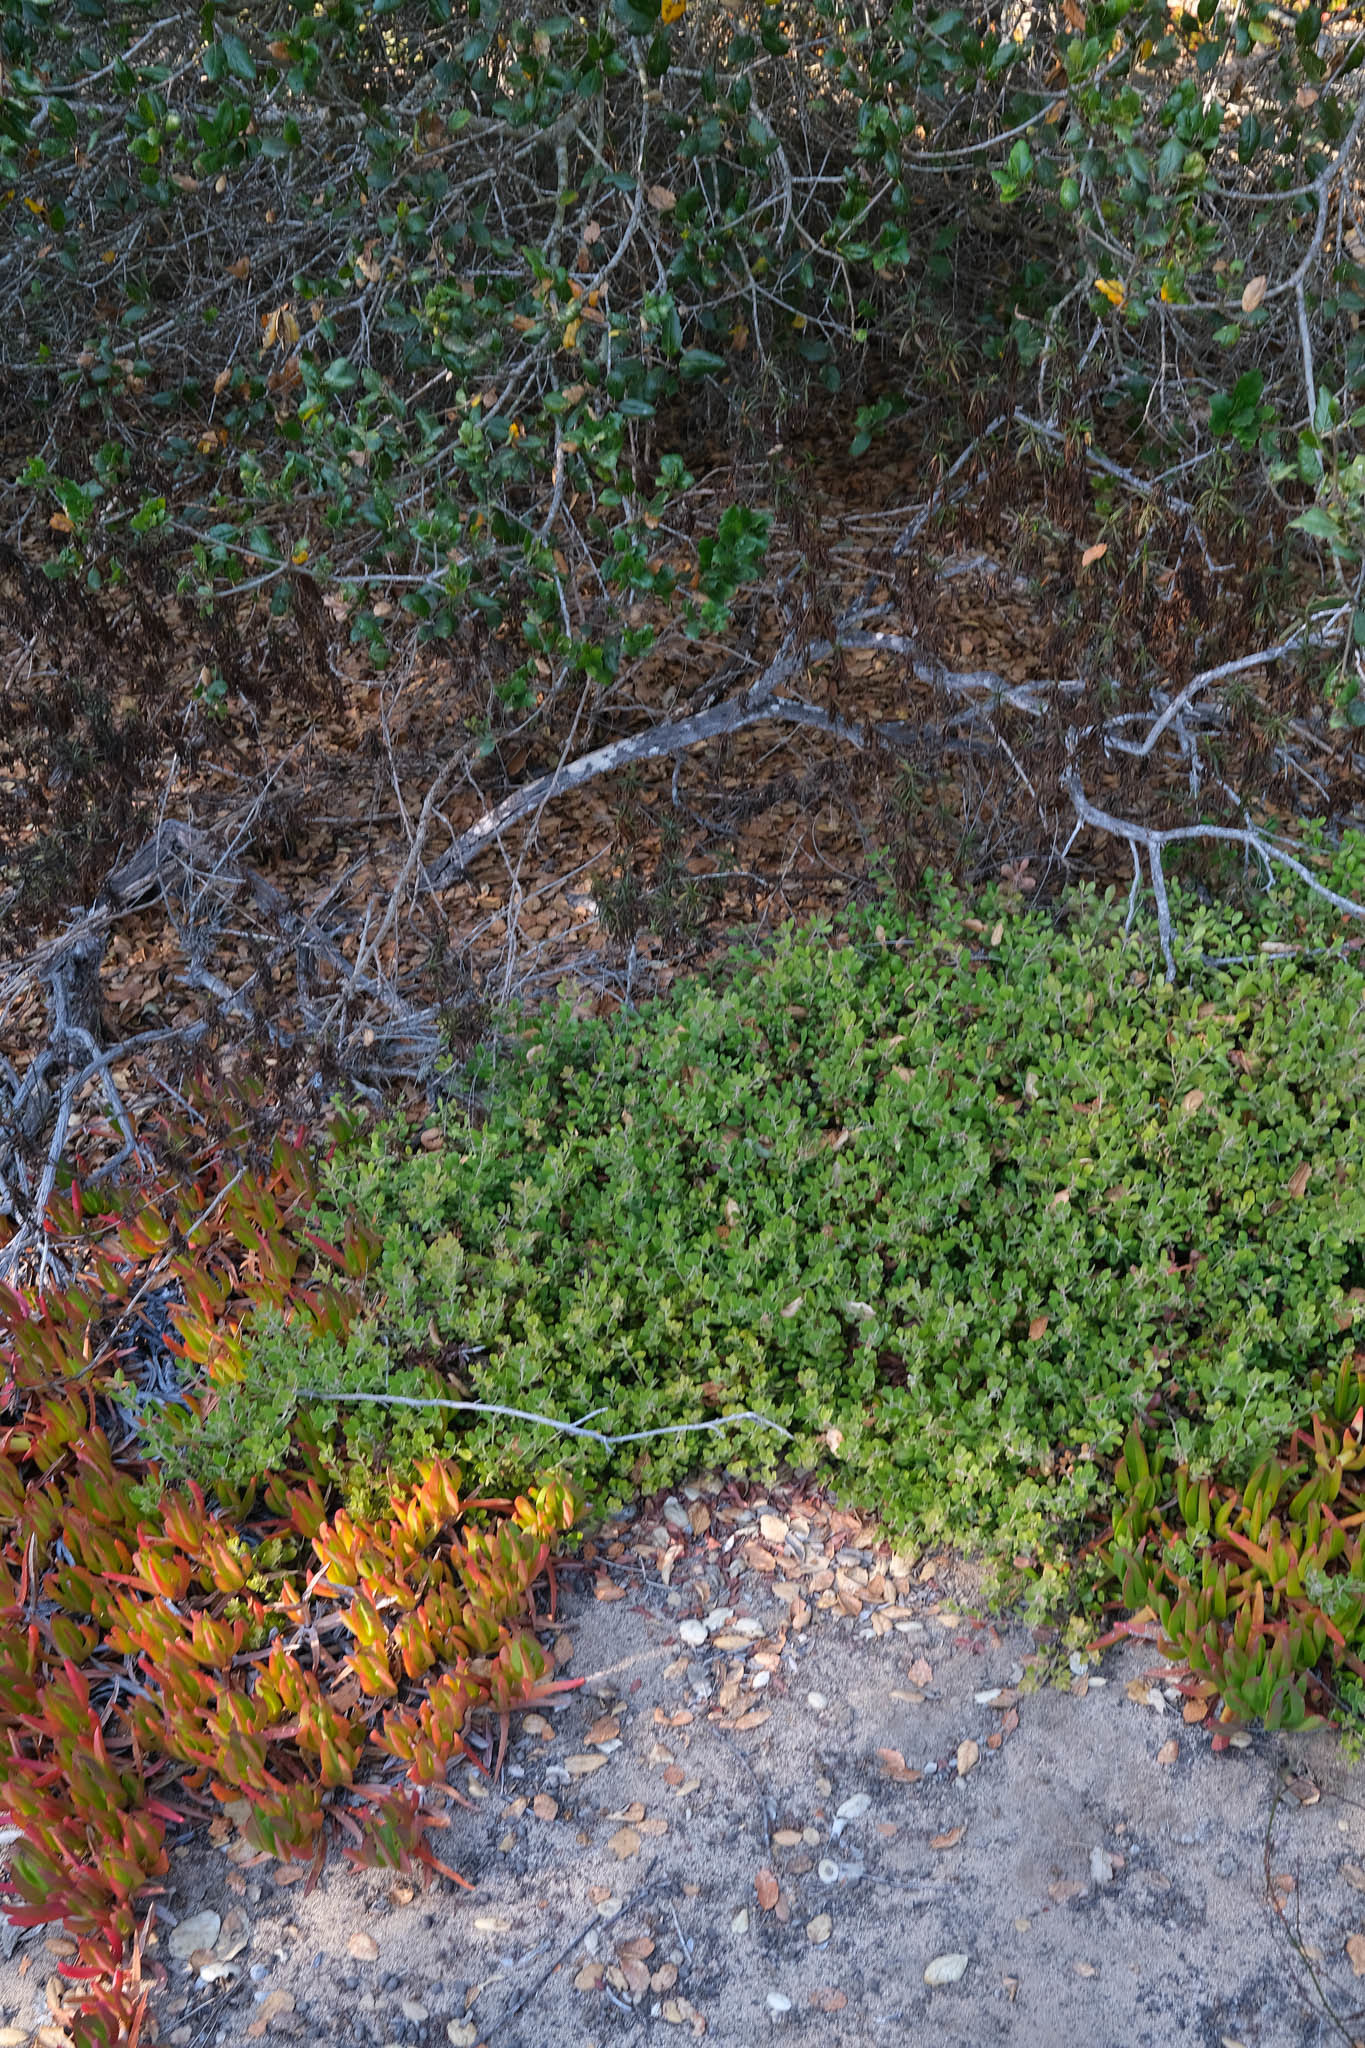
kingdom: Plantae
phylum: Tracheophyta
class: Magnoliopsida
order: Ericales
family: Ericaceae
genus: Arctostaphylos
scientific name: Arctostaphylos pumila
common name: Sandmat manzanita
